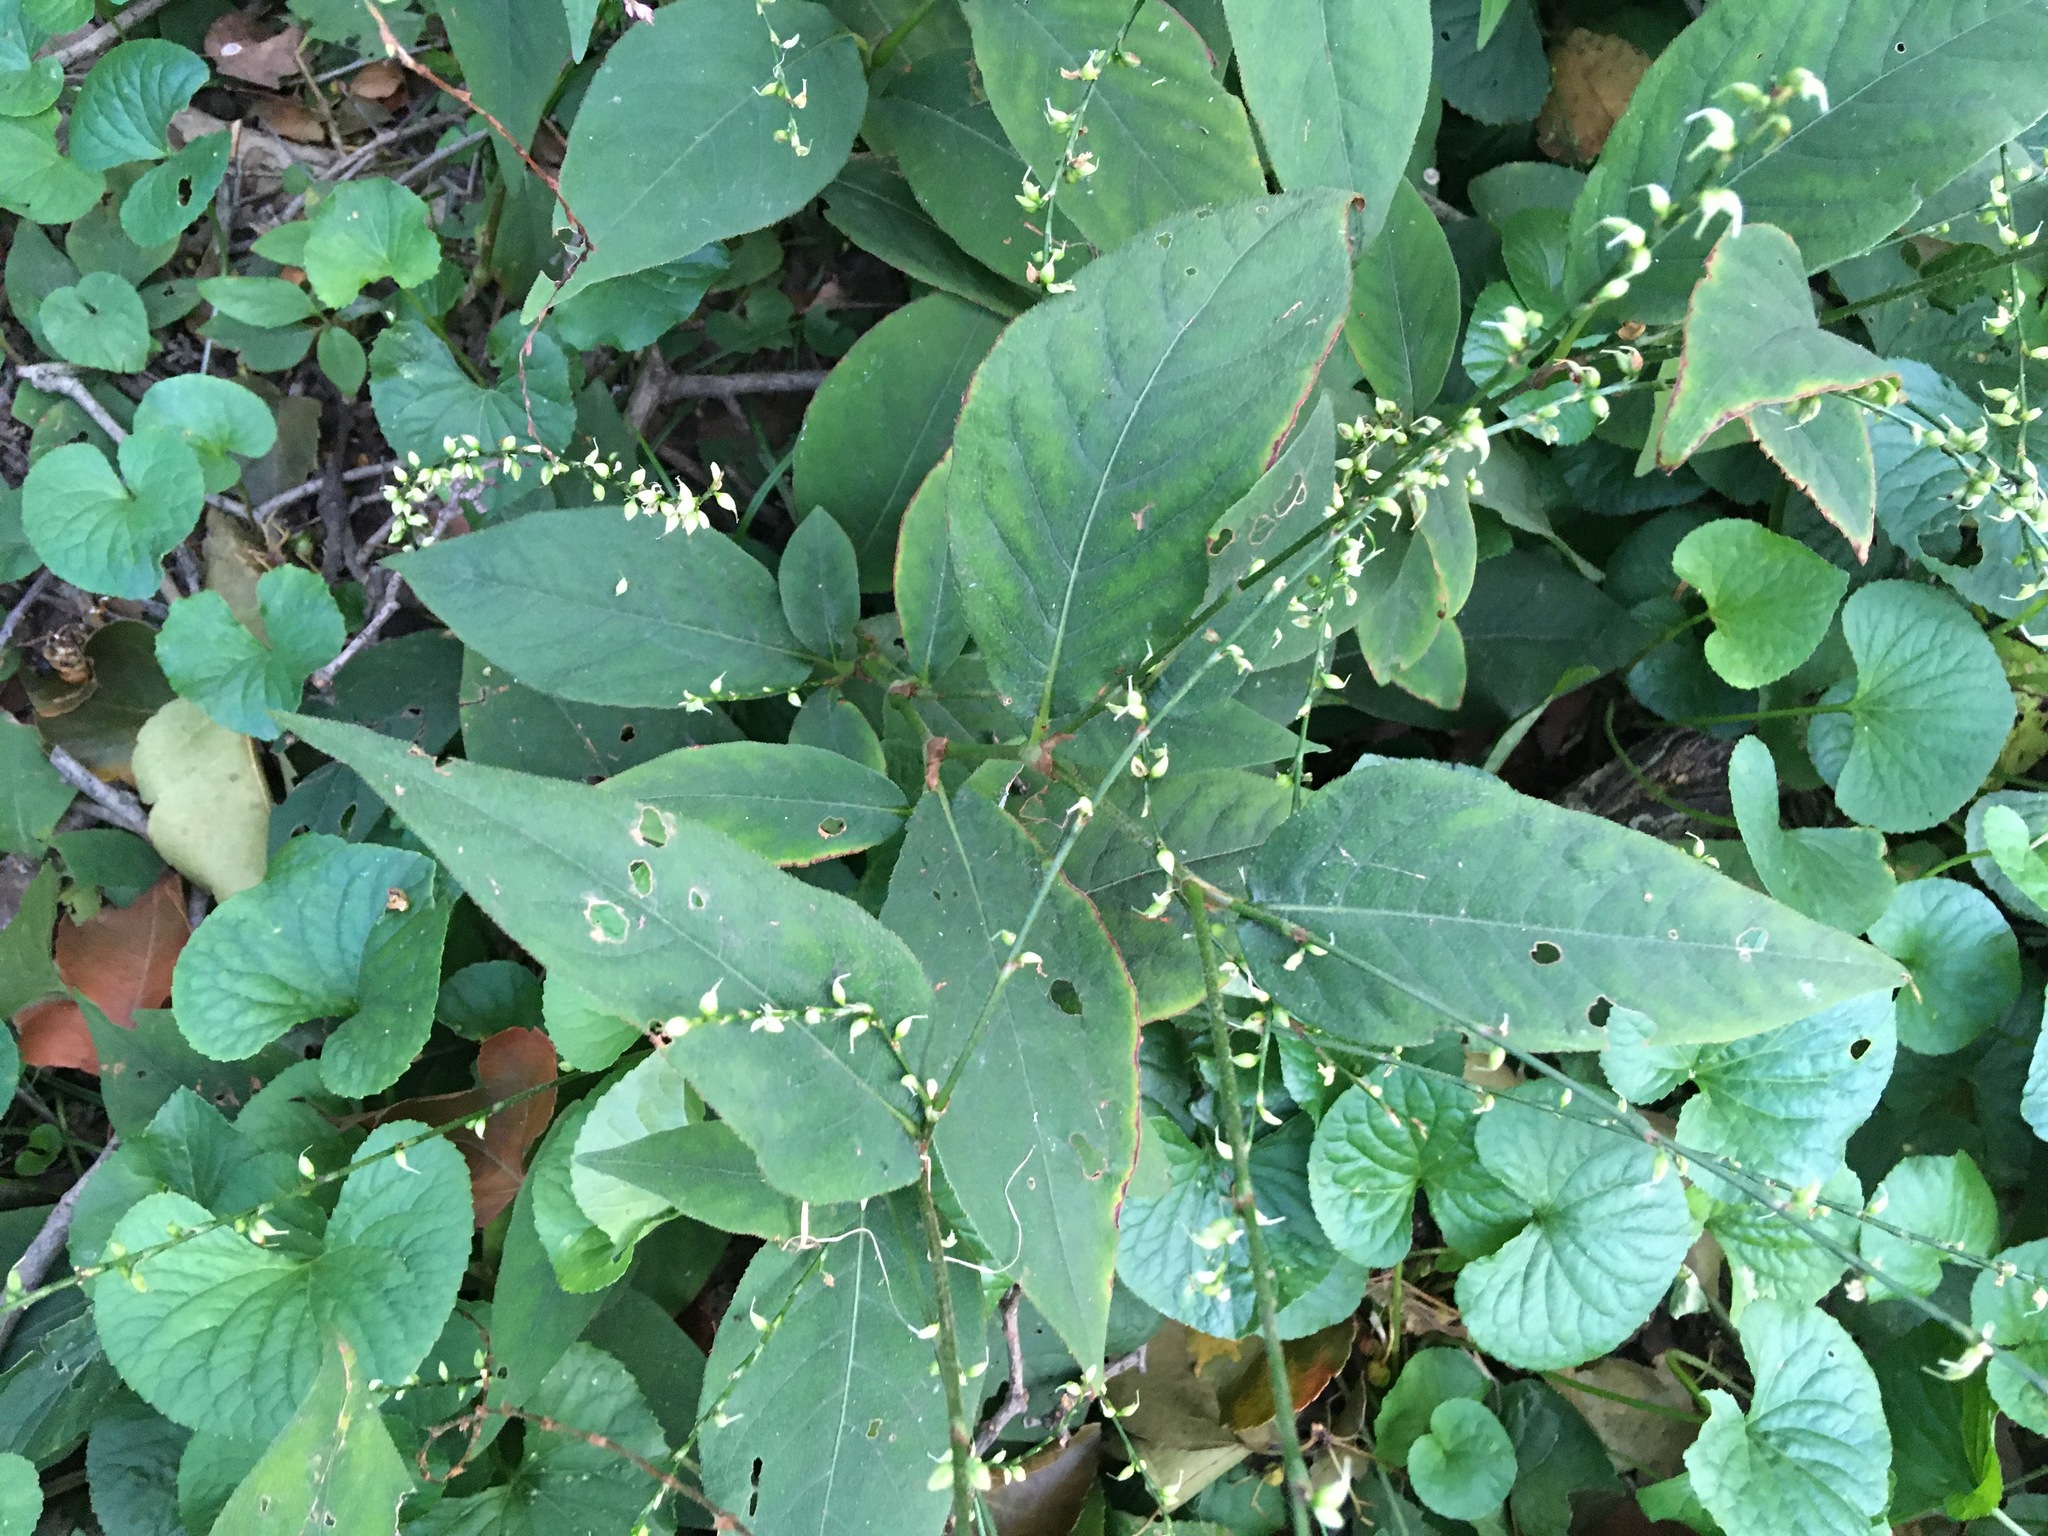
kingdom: Plantae
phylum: Tracheophyta
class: Magnoliopsida
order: Caryophyllales
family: Polygonaceae
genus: Persicaria
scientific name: Persicaria virginiana
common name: Jumpseed
